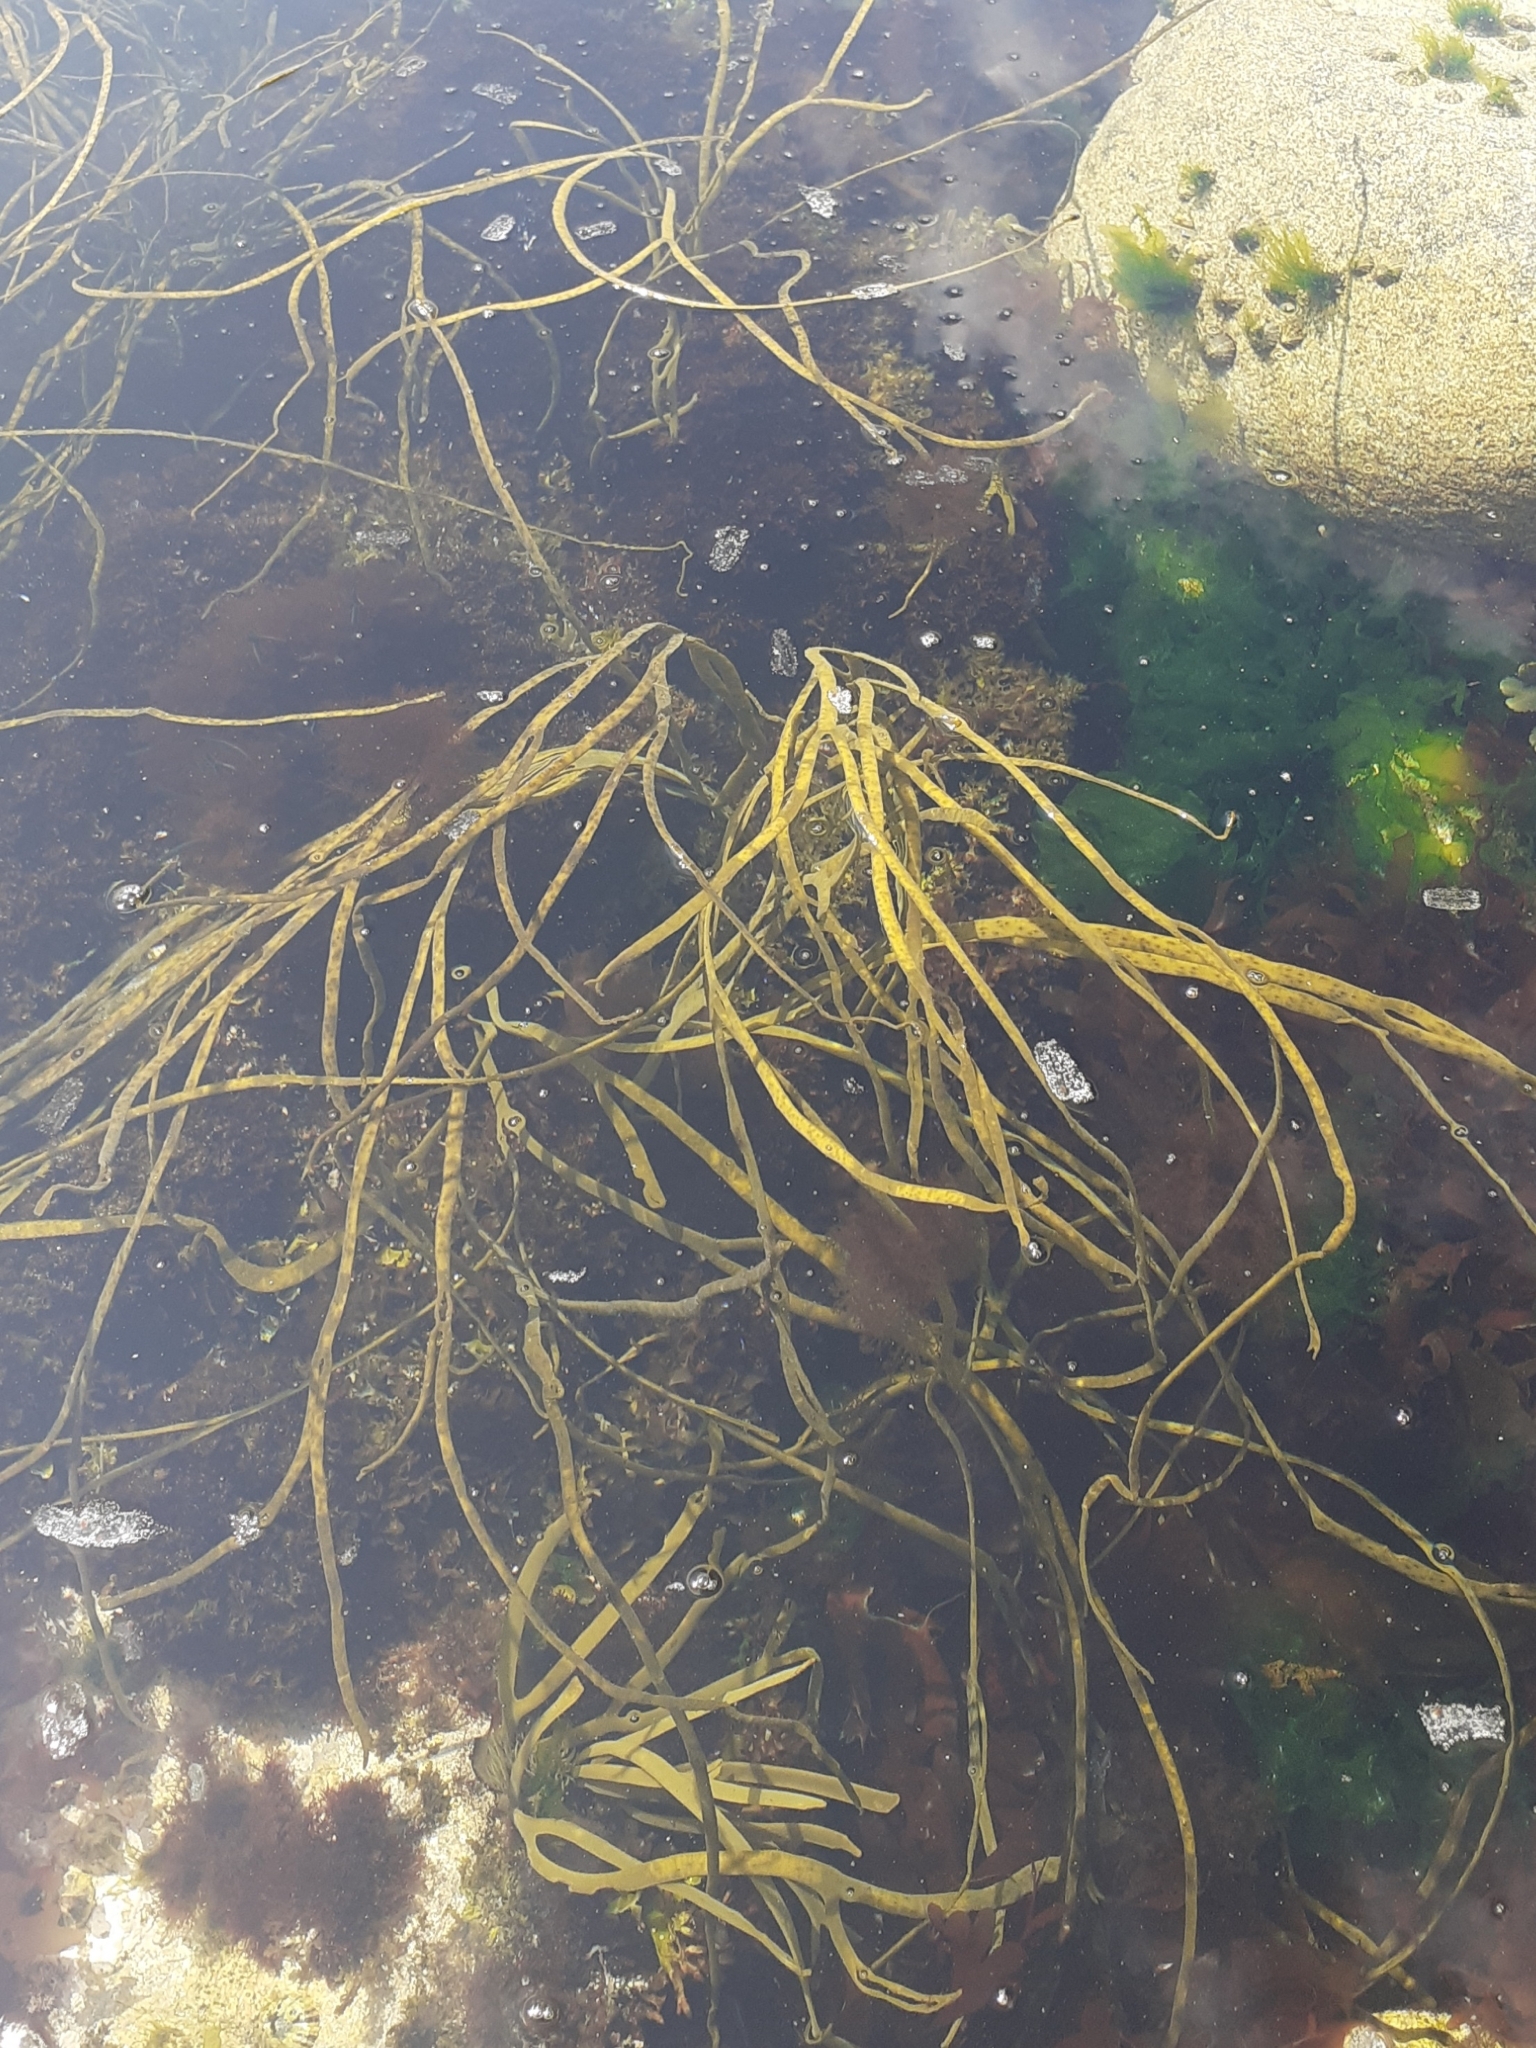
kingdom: Chromista
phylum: Ochrophyta
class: Phaeophyceae
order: Fucales
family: Himanthaliaceae
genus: Himanthalia
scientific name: Himanthalia elongata
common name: Sea-thong
